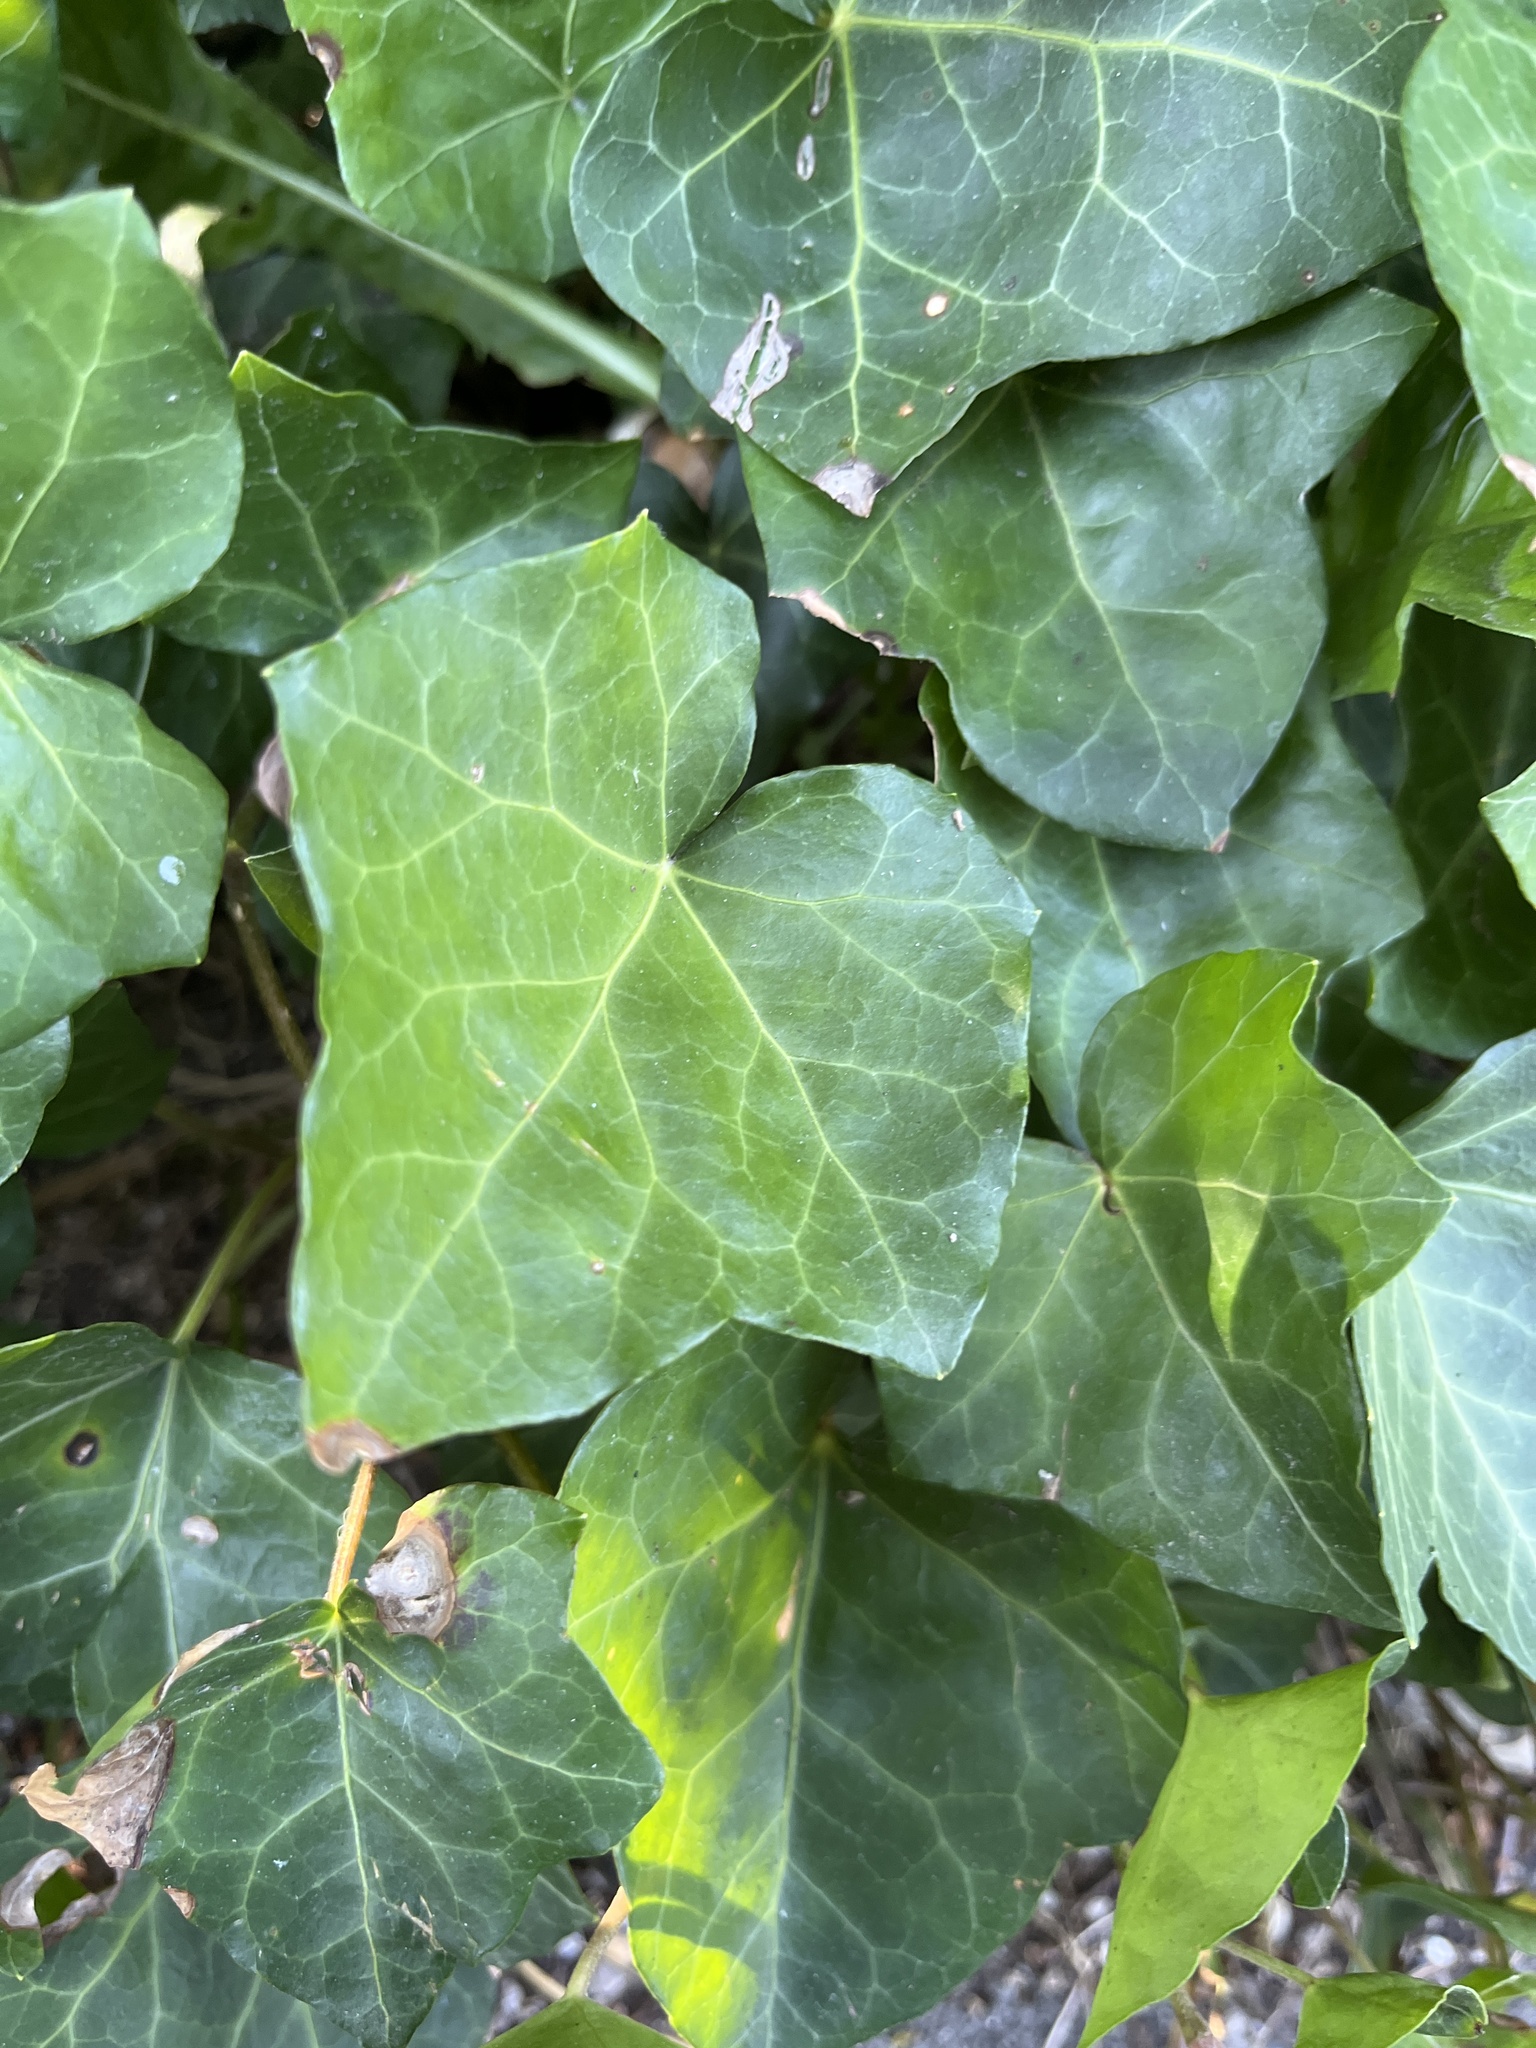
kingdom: Plantae
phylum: Tracheophyta
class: Magnoliopsida
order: Apiales
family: Araliaceae
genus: Hedera
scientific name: Hedera helix
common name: Ivy
